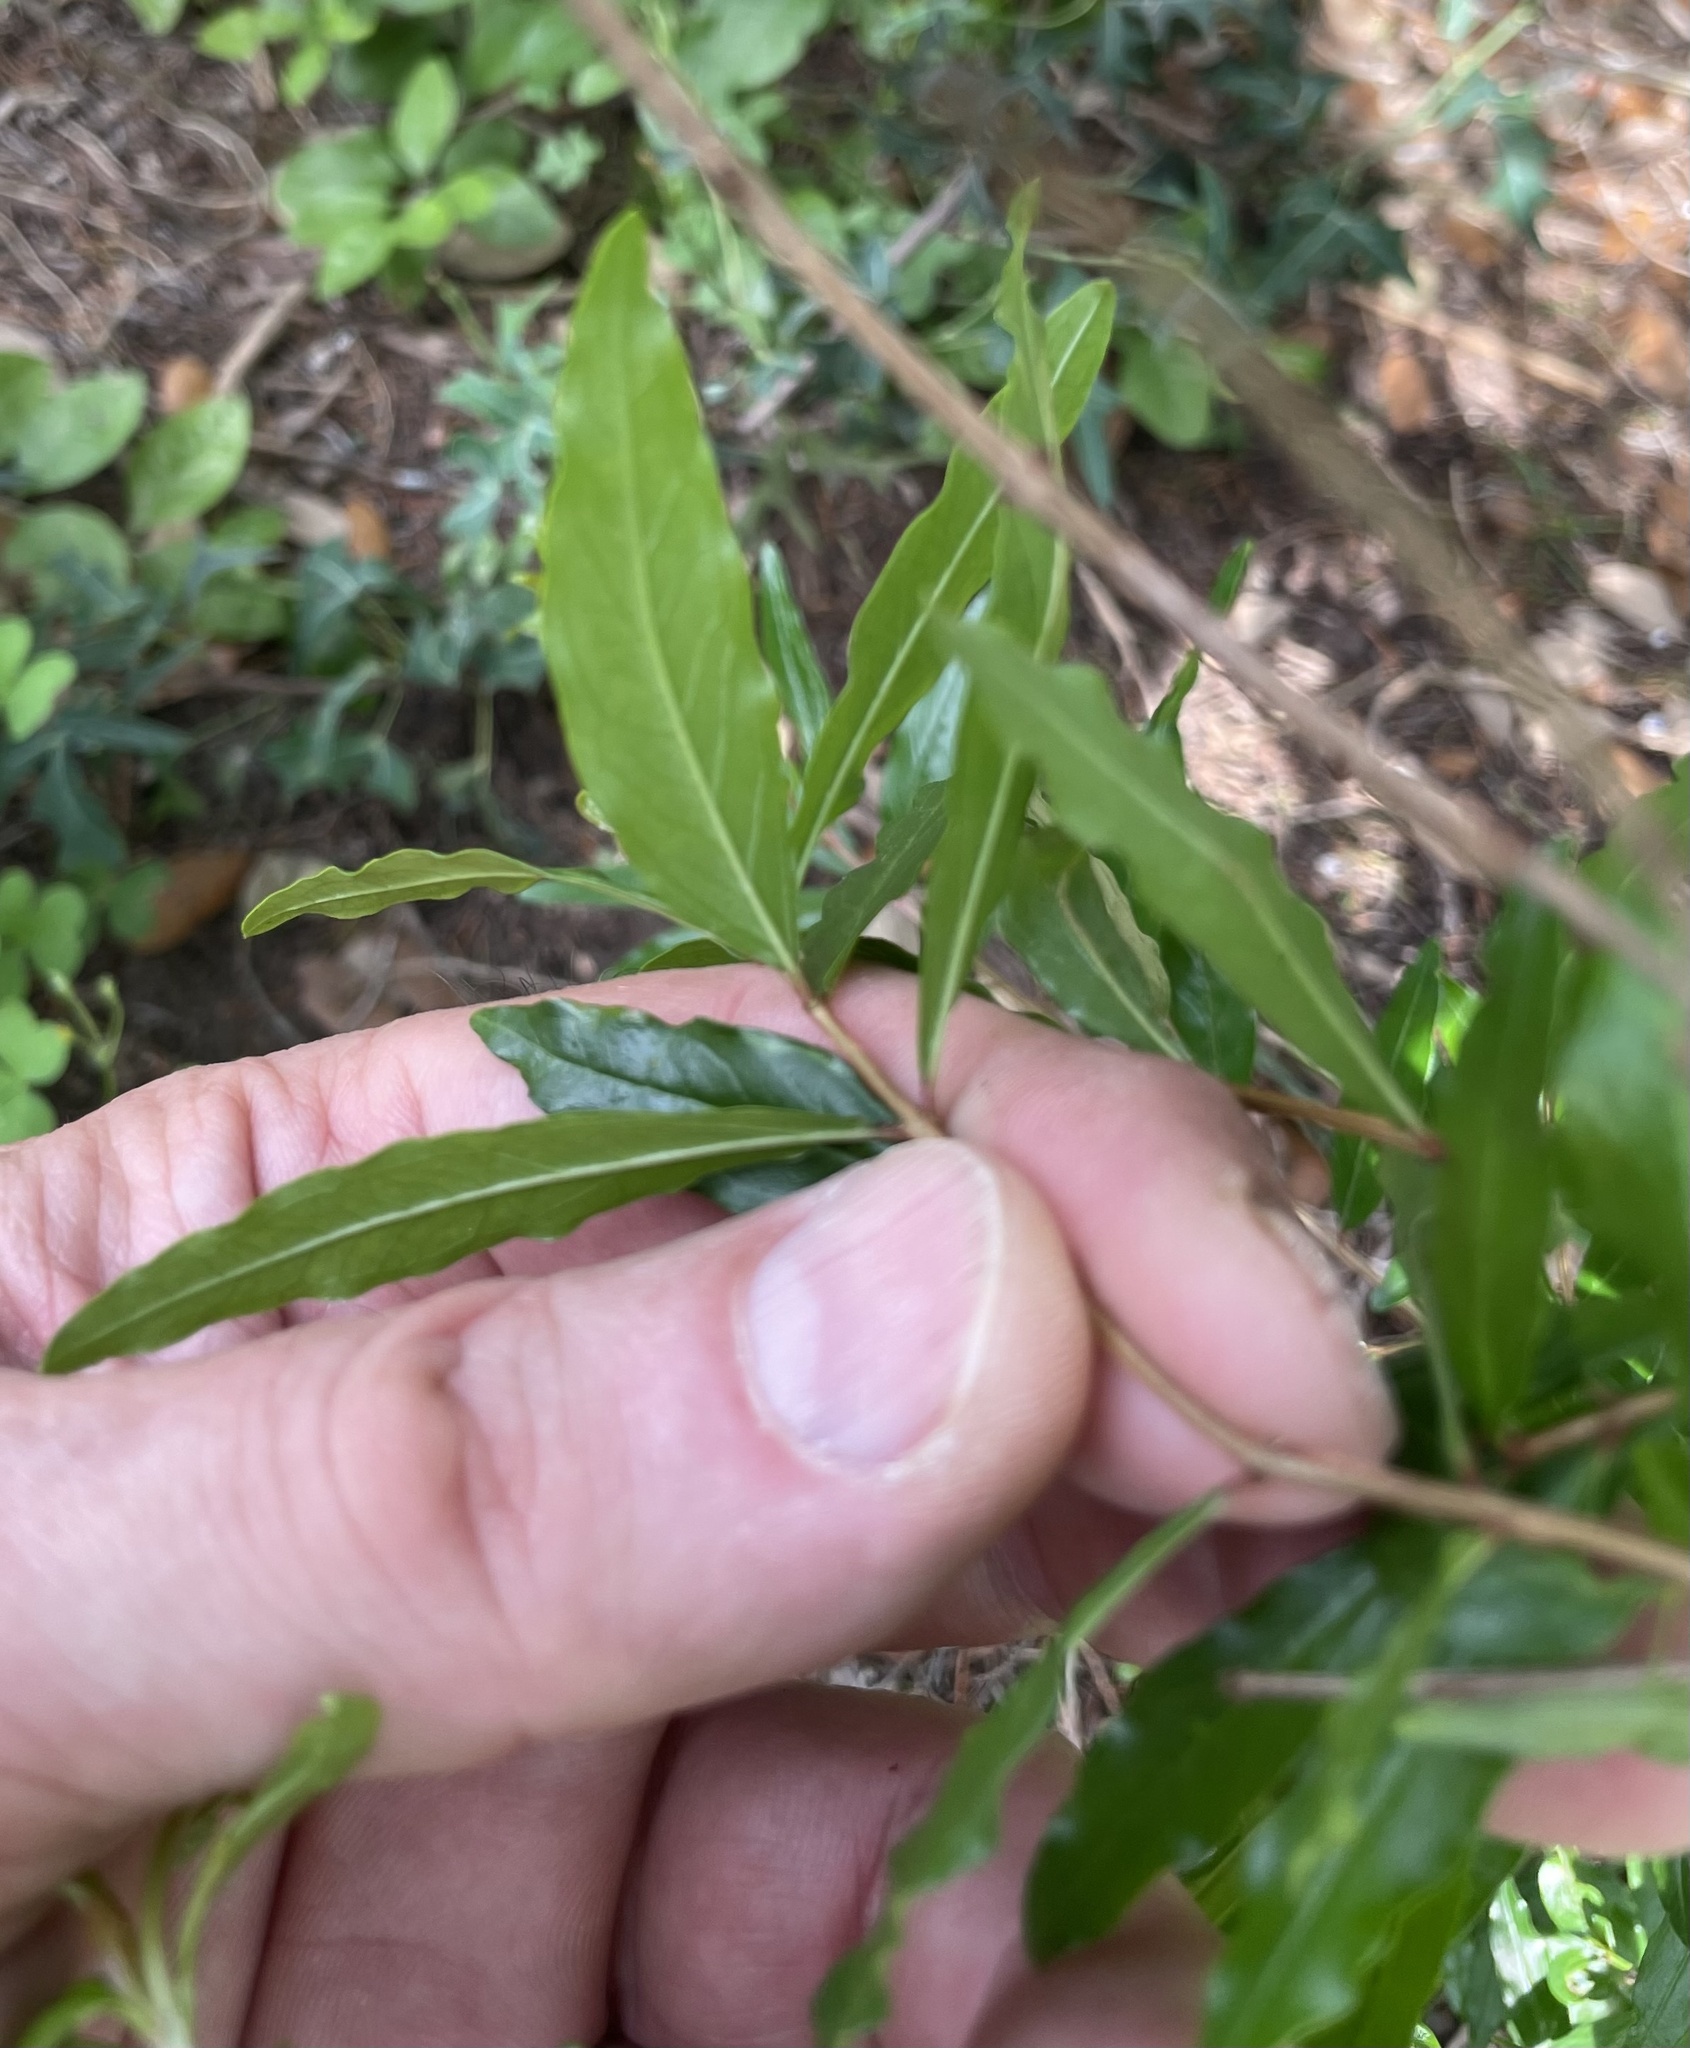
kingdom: Plantae
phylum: Tracheophyta
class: Magnoliopsida
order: Myrtales
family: Lythraceae
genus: Punica
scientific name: Punica granatum
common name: Pomegranate
